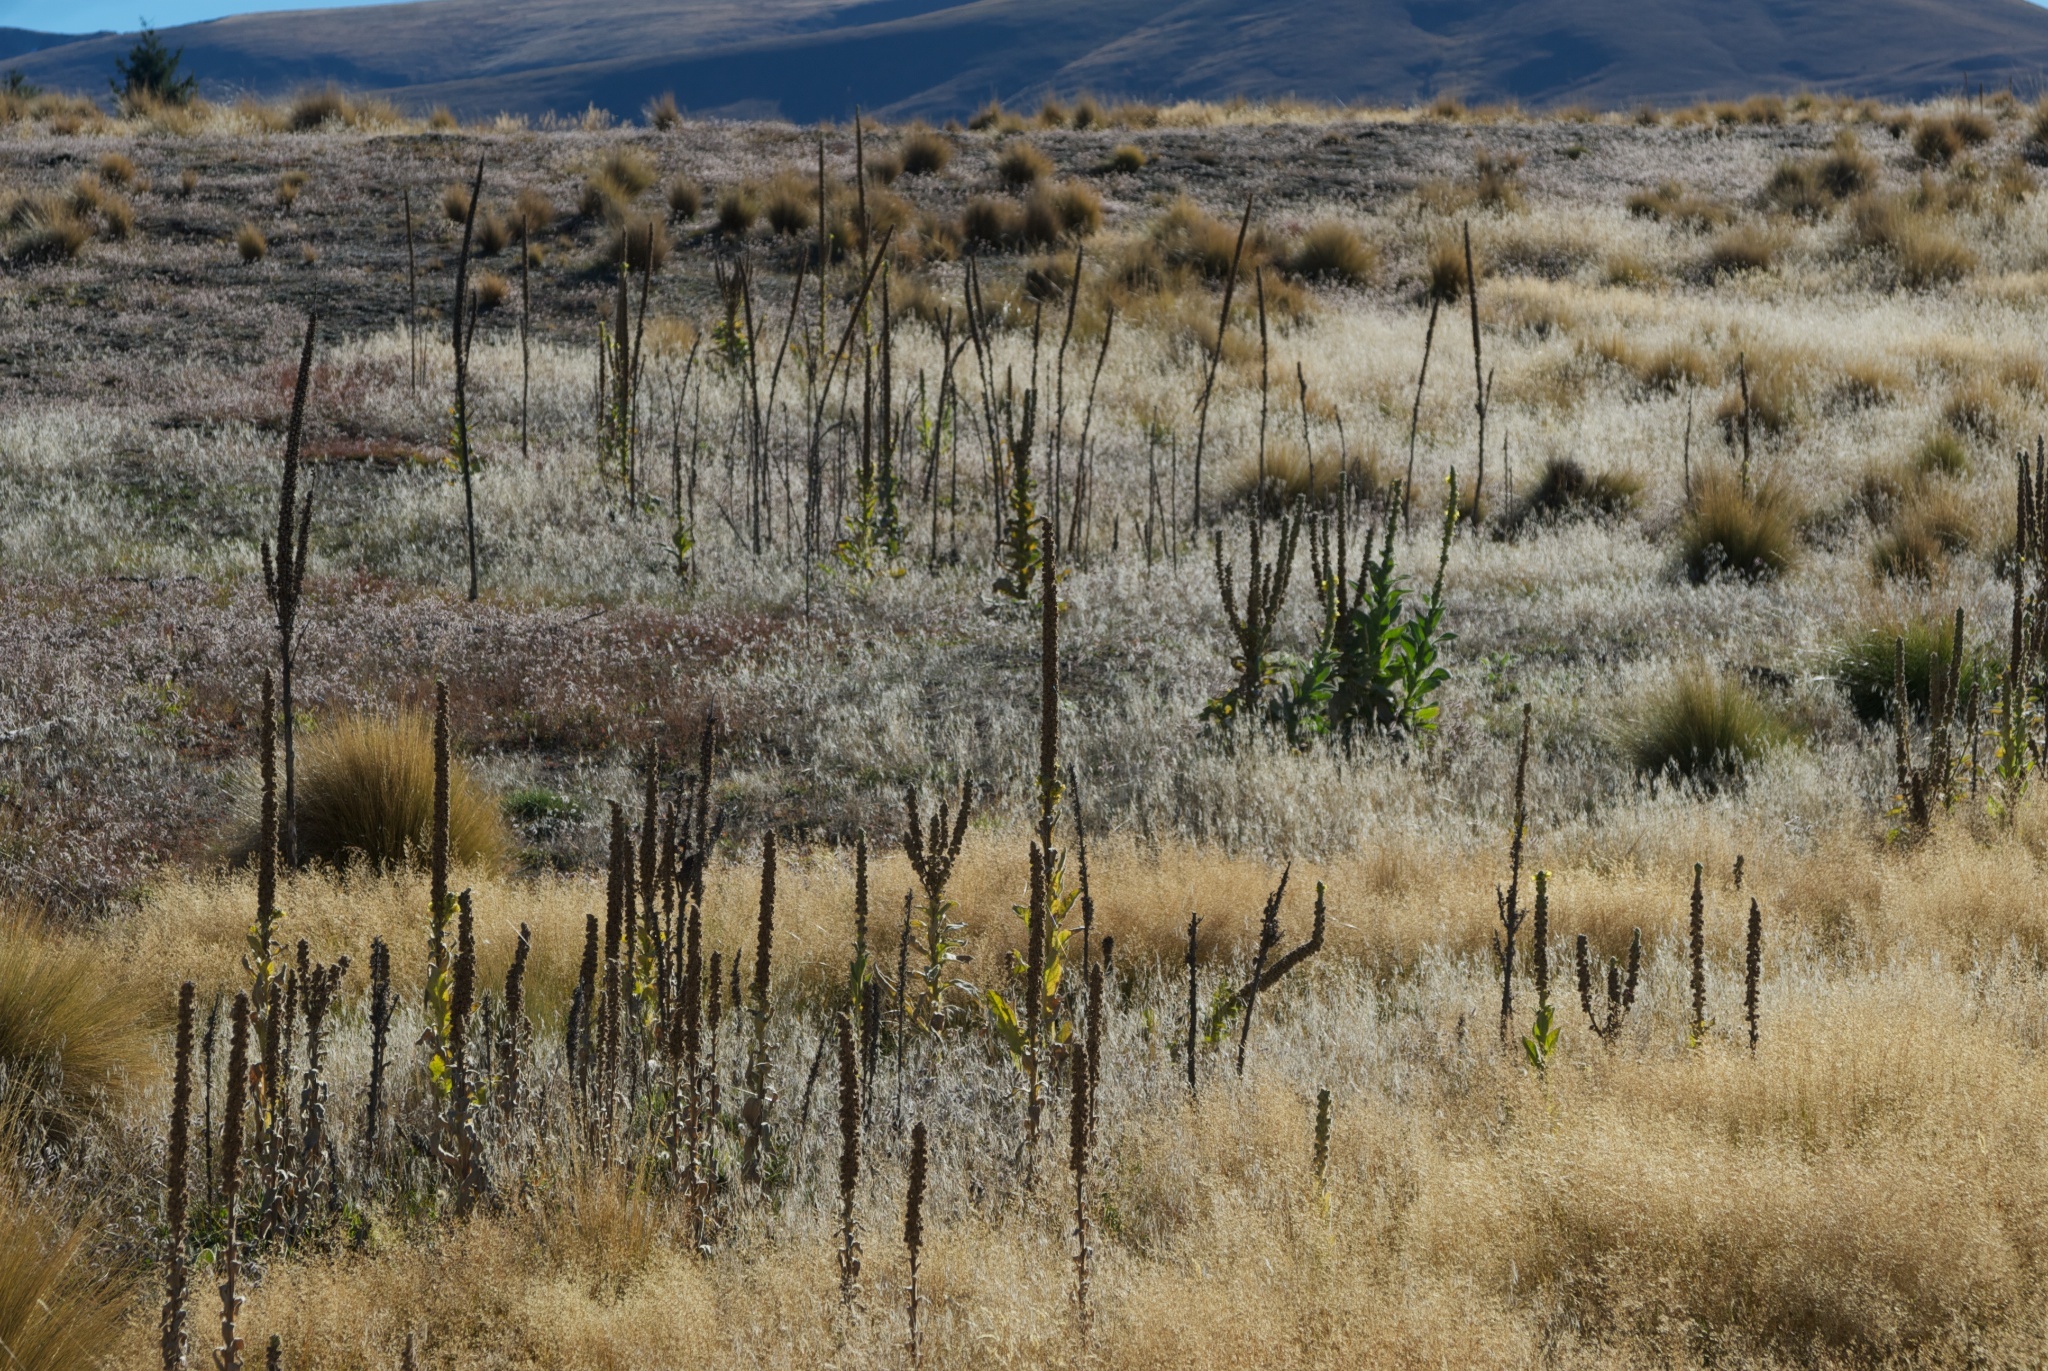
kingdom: Plantae
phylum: Tracheophyta
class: Magnoliopsida
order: Lamiales
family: Scrophulariaceae
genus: Verbascum
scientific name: Verbascum thapsus
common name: Common mullein
